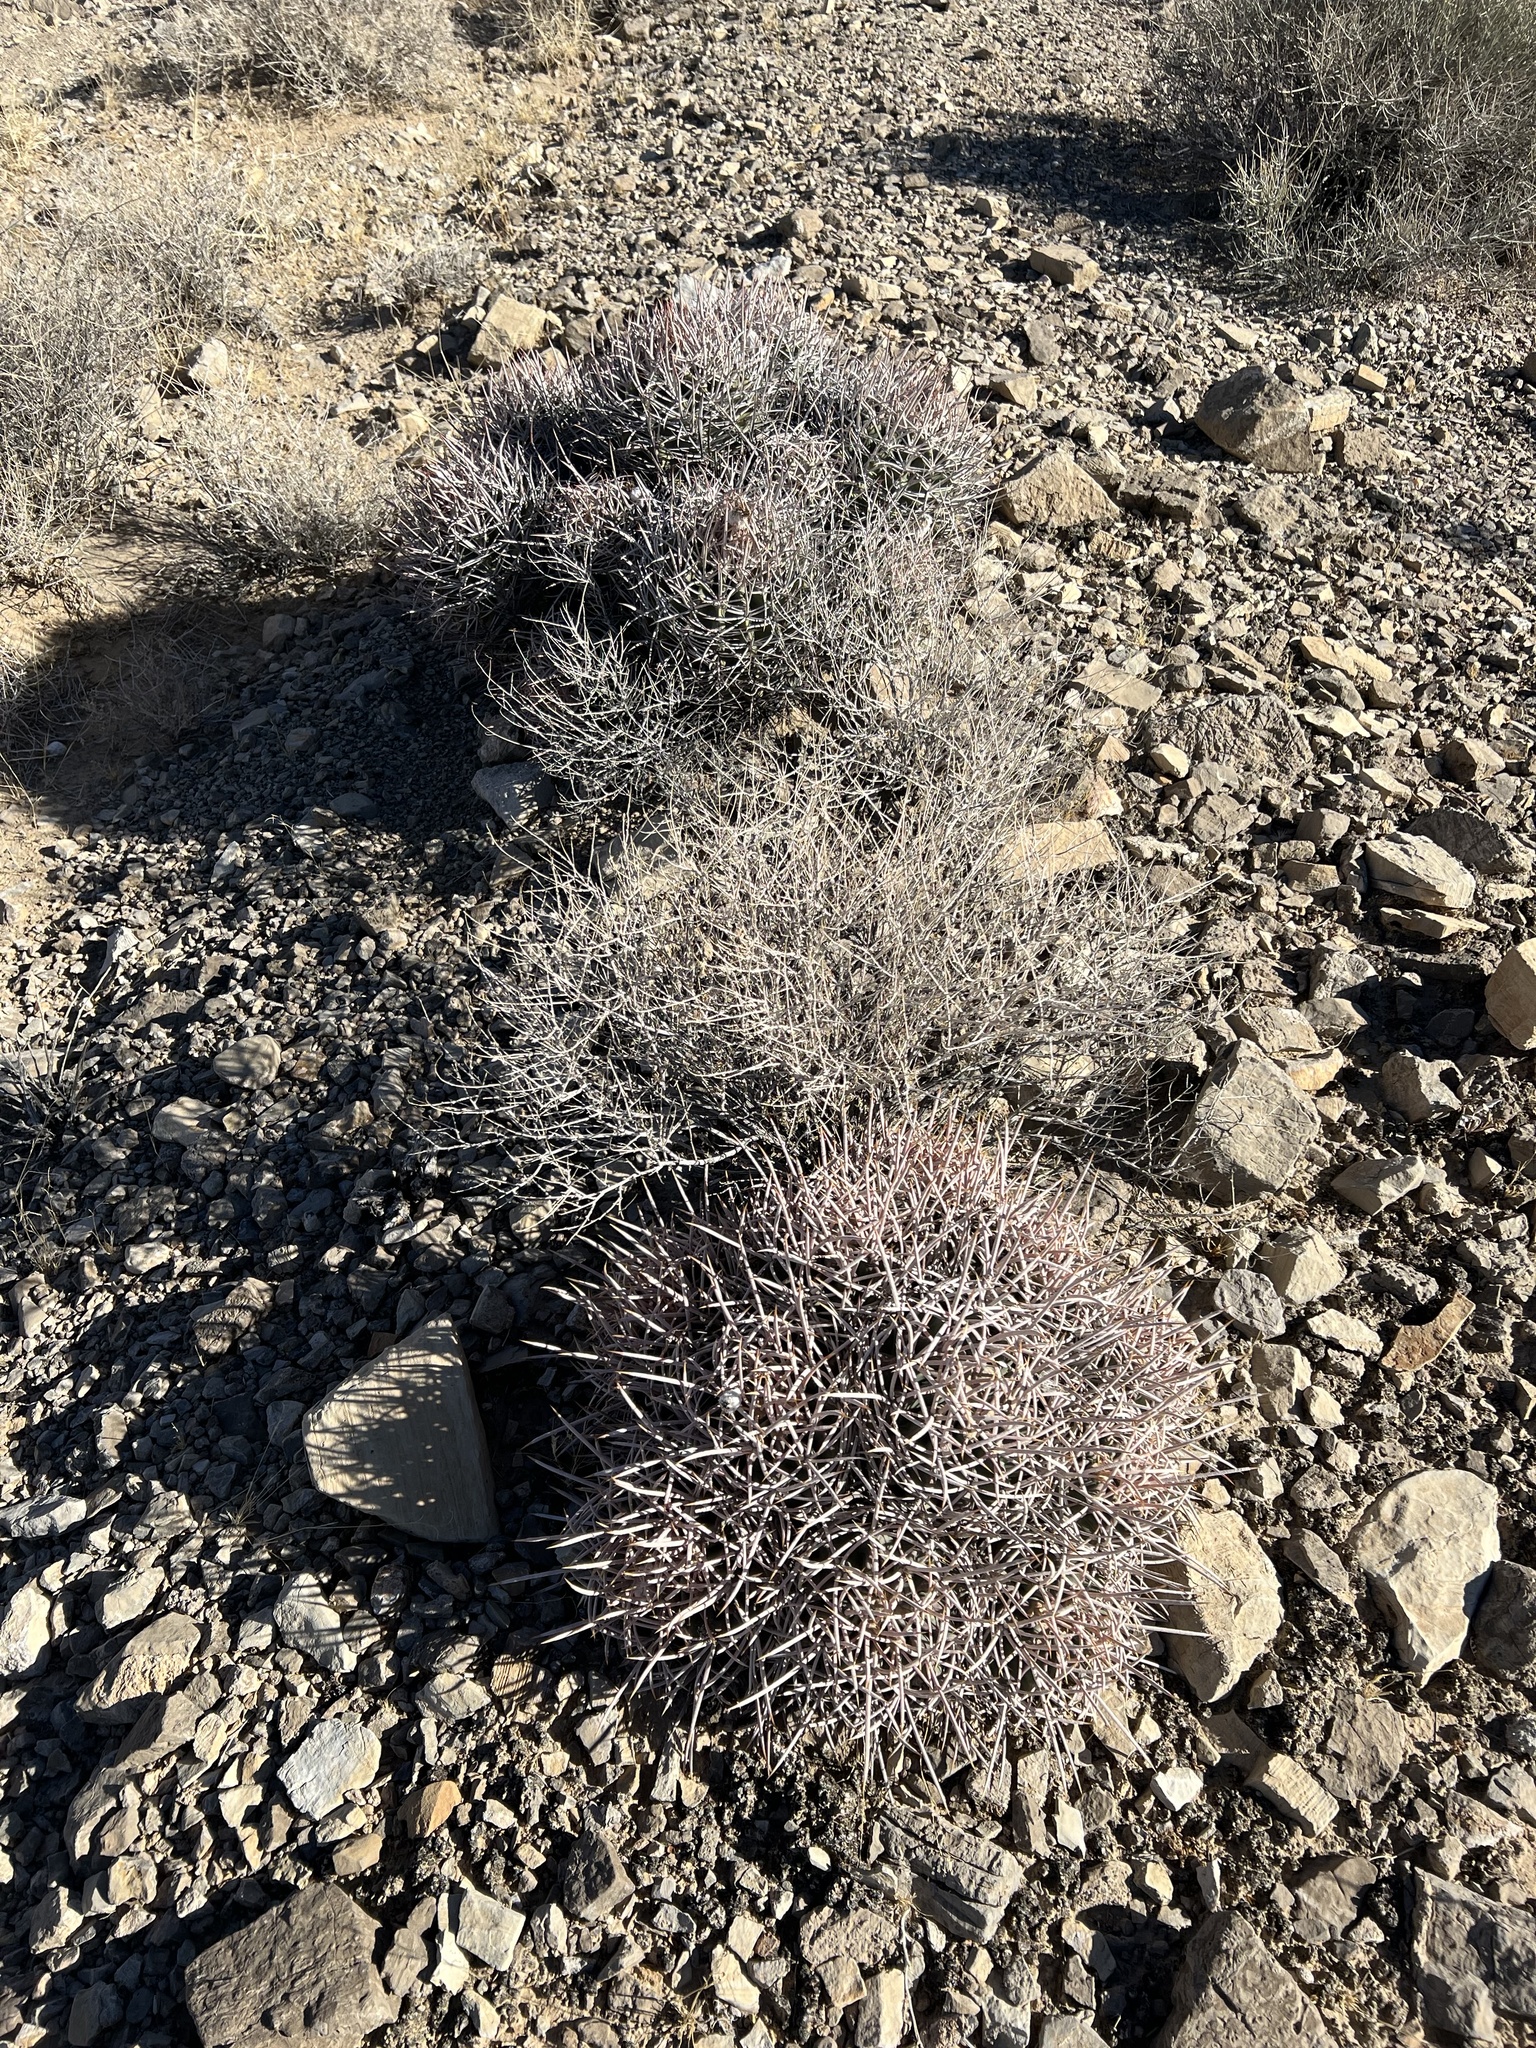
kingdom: Plantae
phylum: Tracheophyta
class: Magnoliopsida
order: Caryophyllales
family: Cactaceae
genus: Echinocactus
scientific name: Echinocactus polycephalus
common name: Cottontop cactus
